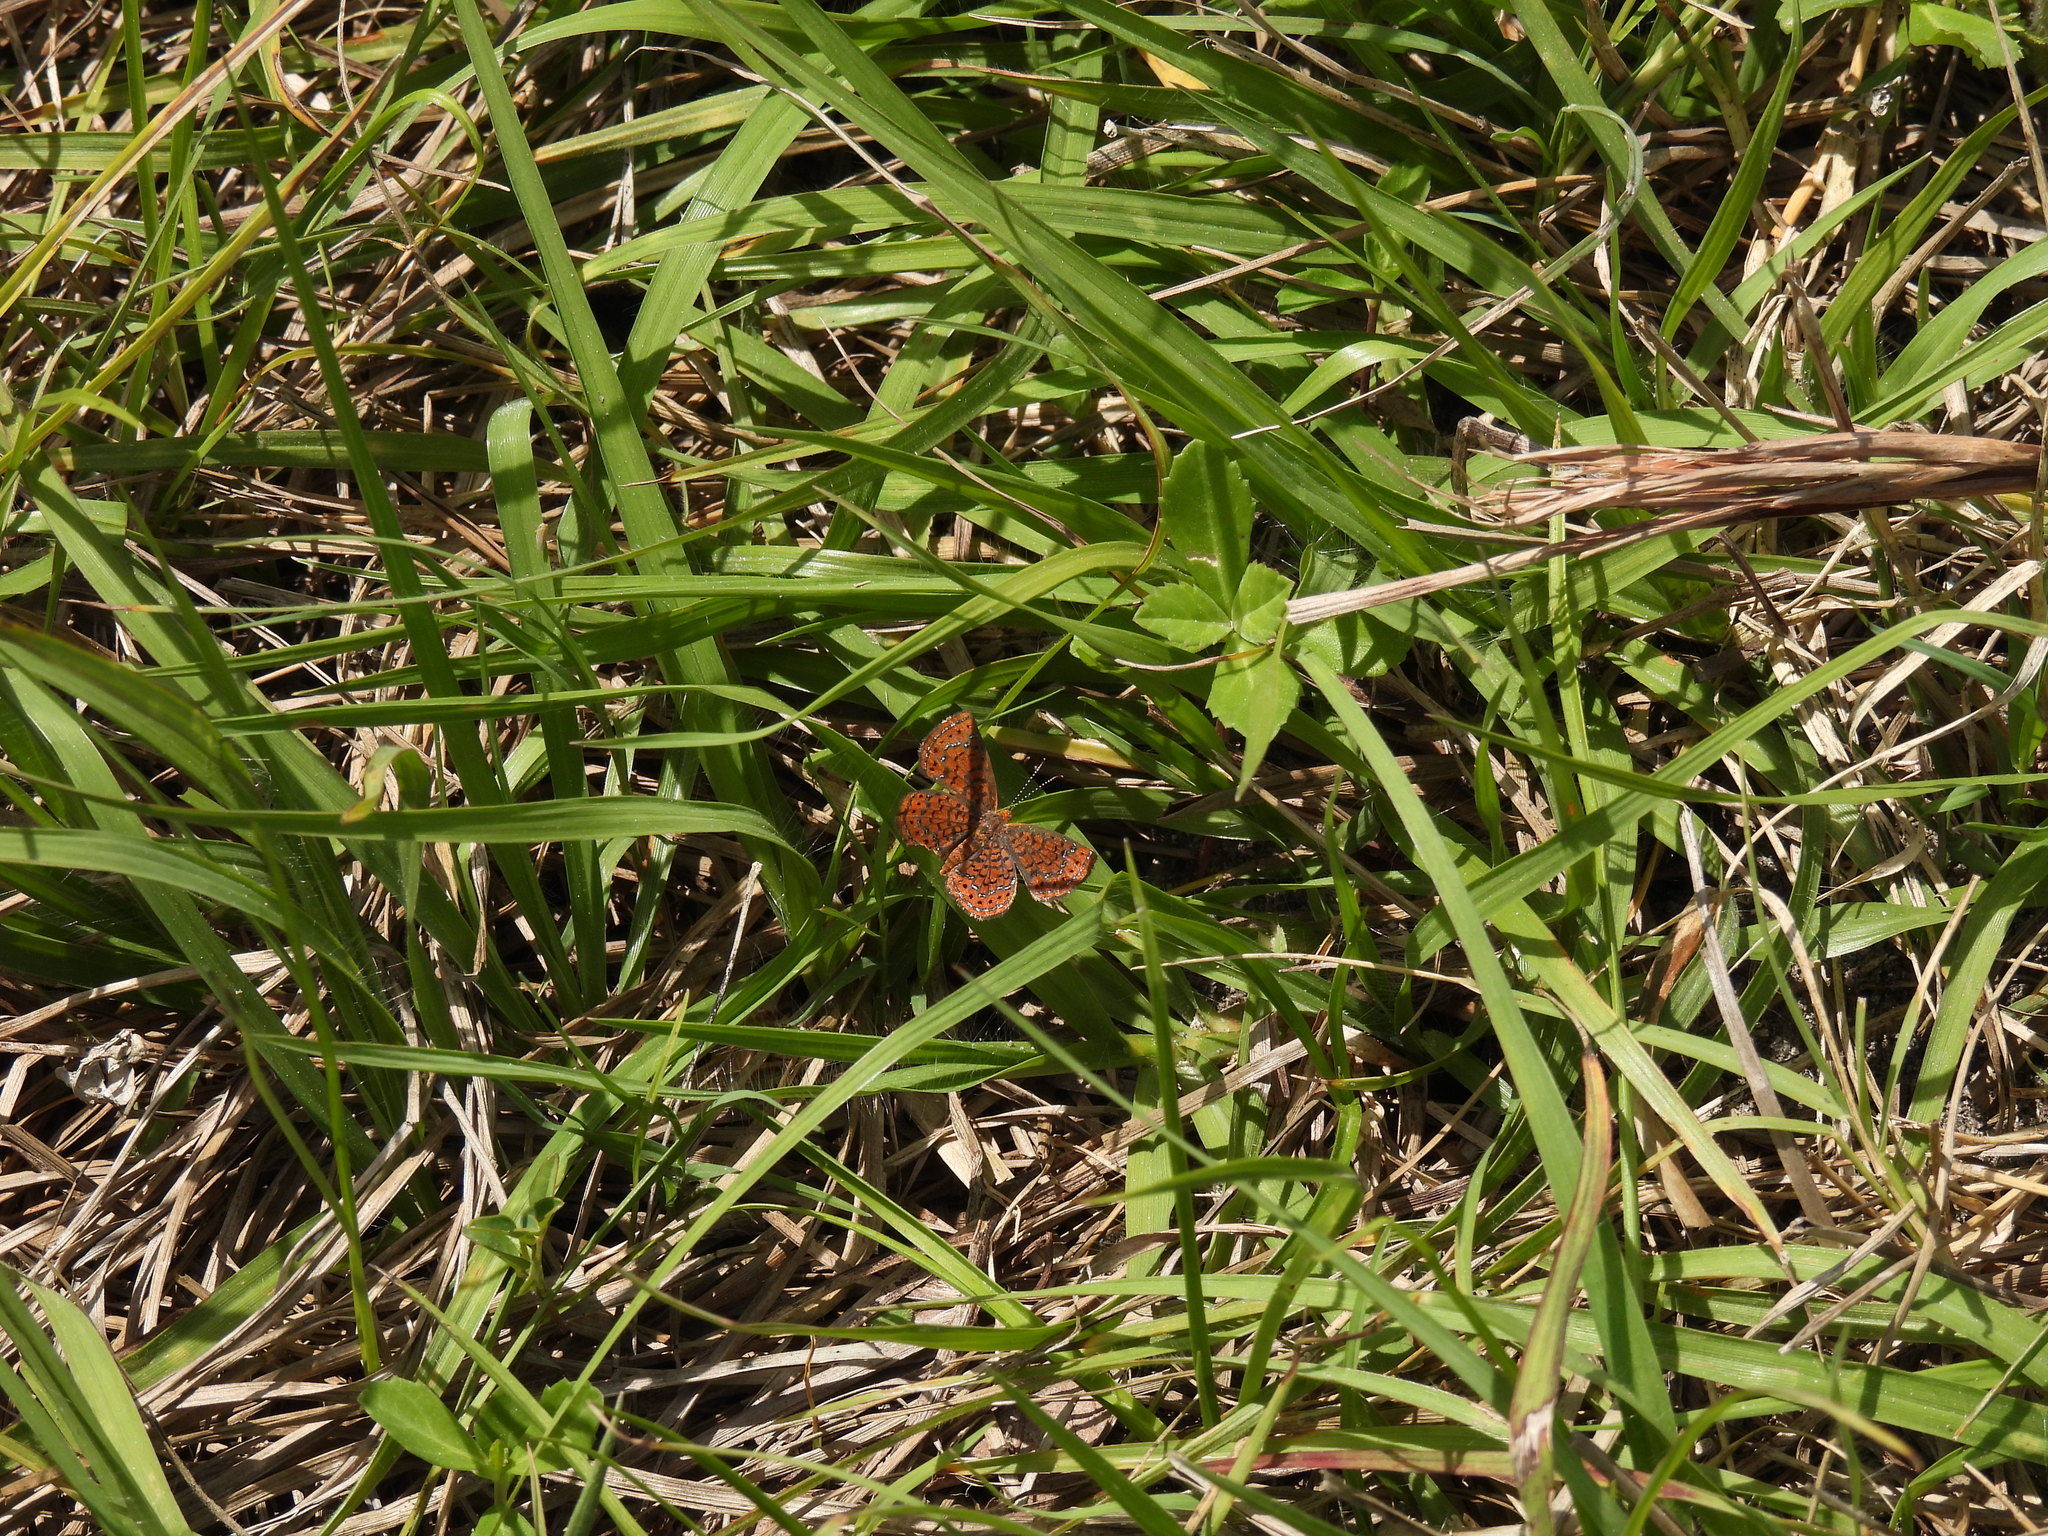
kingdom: Animalia
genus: Calephelis
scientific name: Calephelis virginiensis
